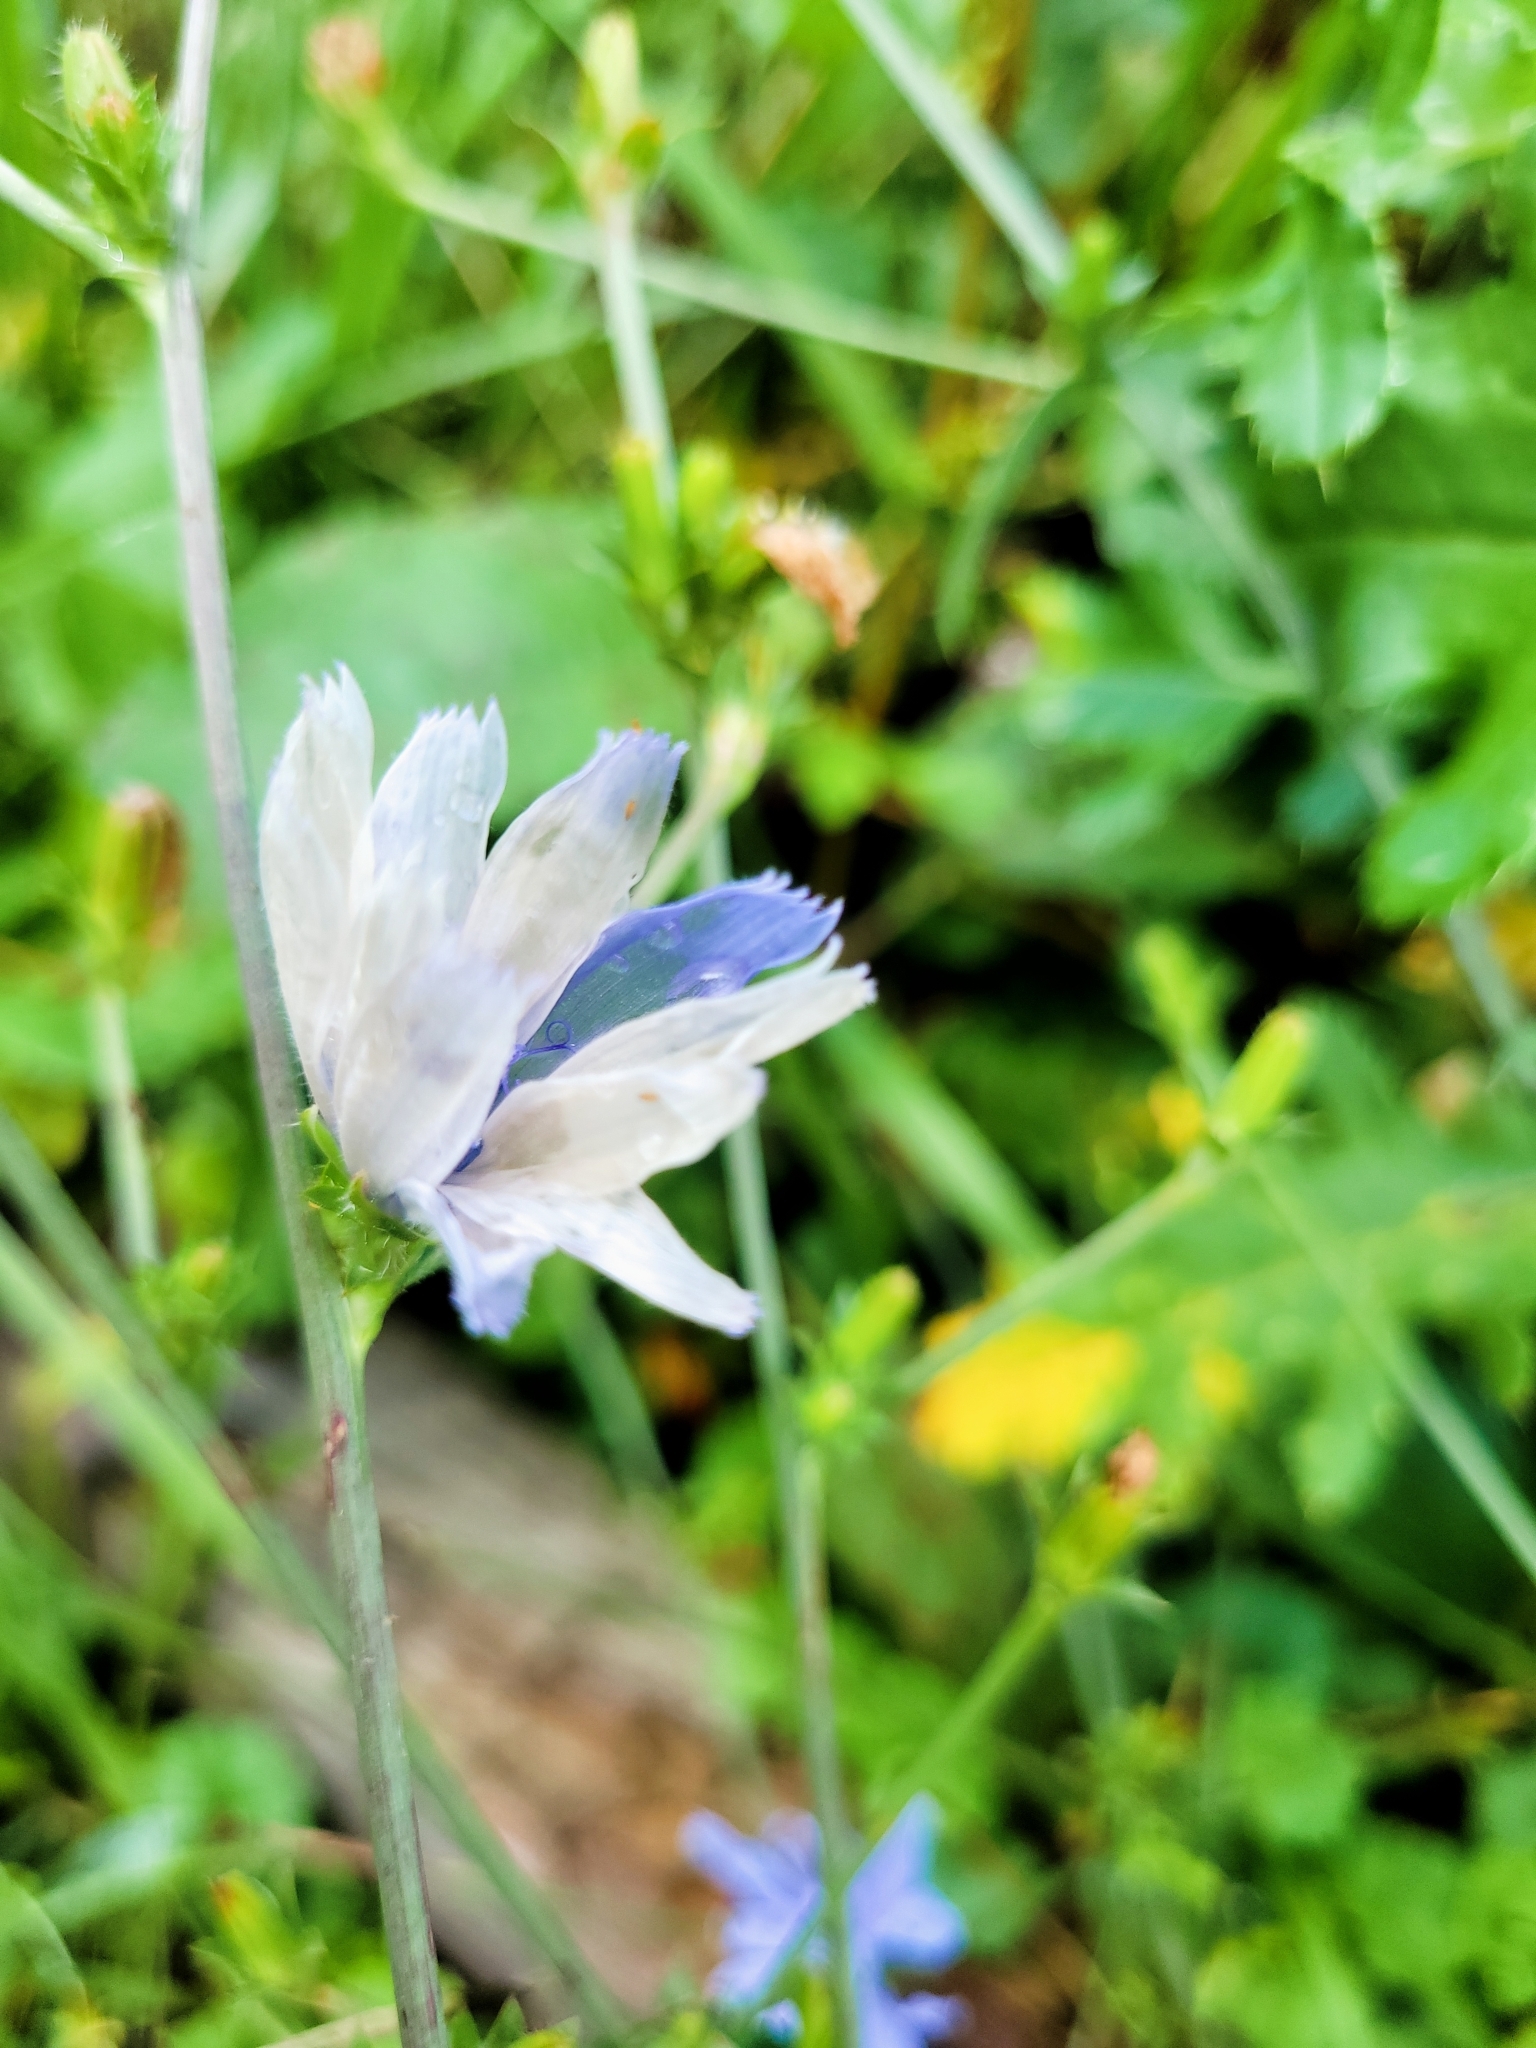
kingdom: Plantae
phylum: Tracheophyta
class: Magnoliopsida
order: Asterales
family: Asteraceae
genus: Cichorium
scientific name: Cichorium intybus
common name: Chicory
